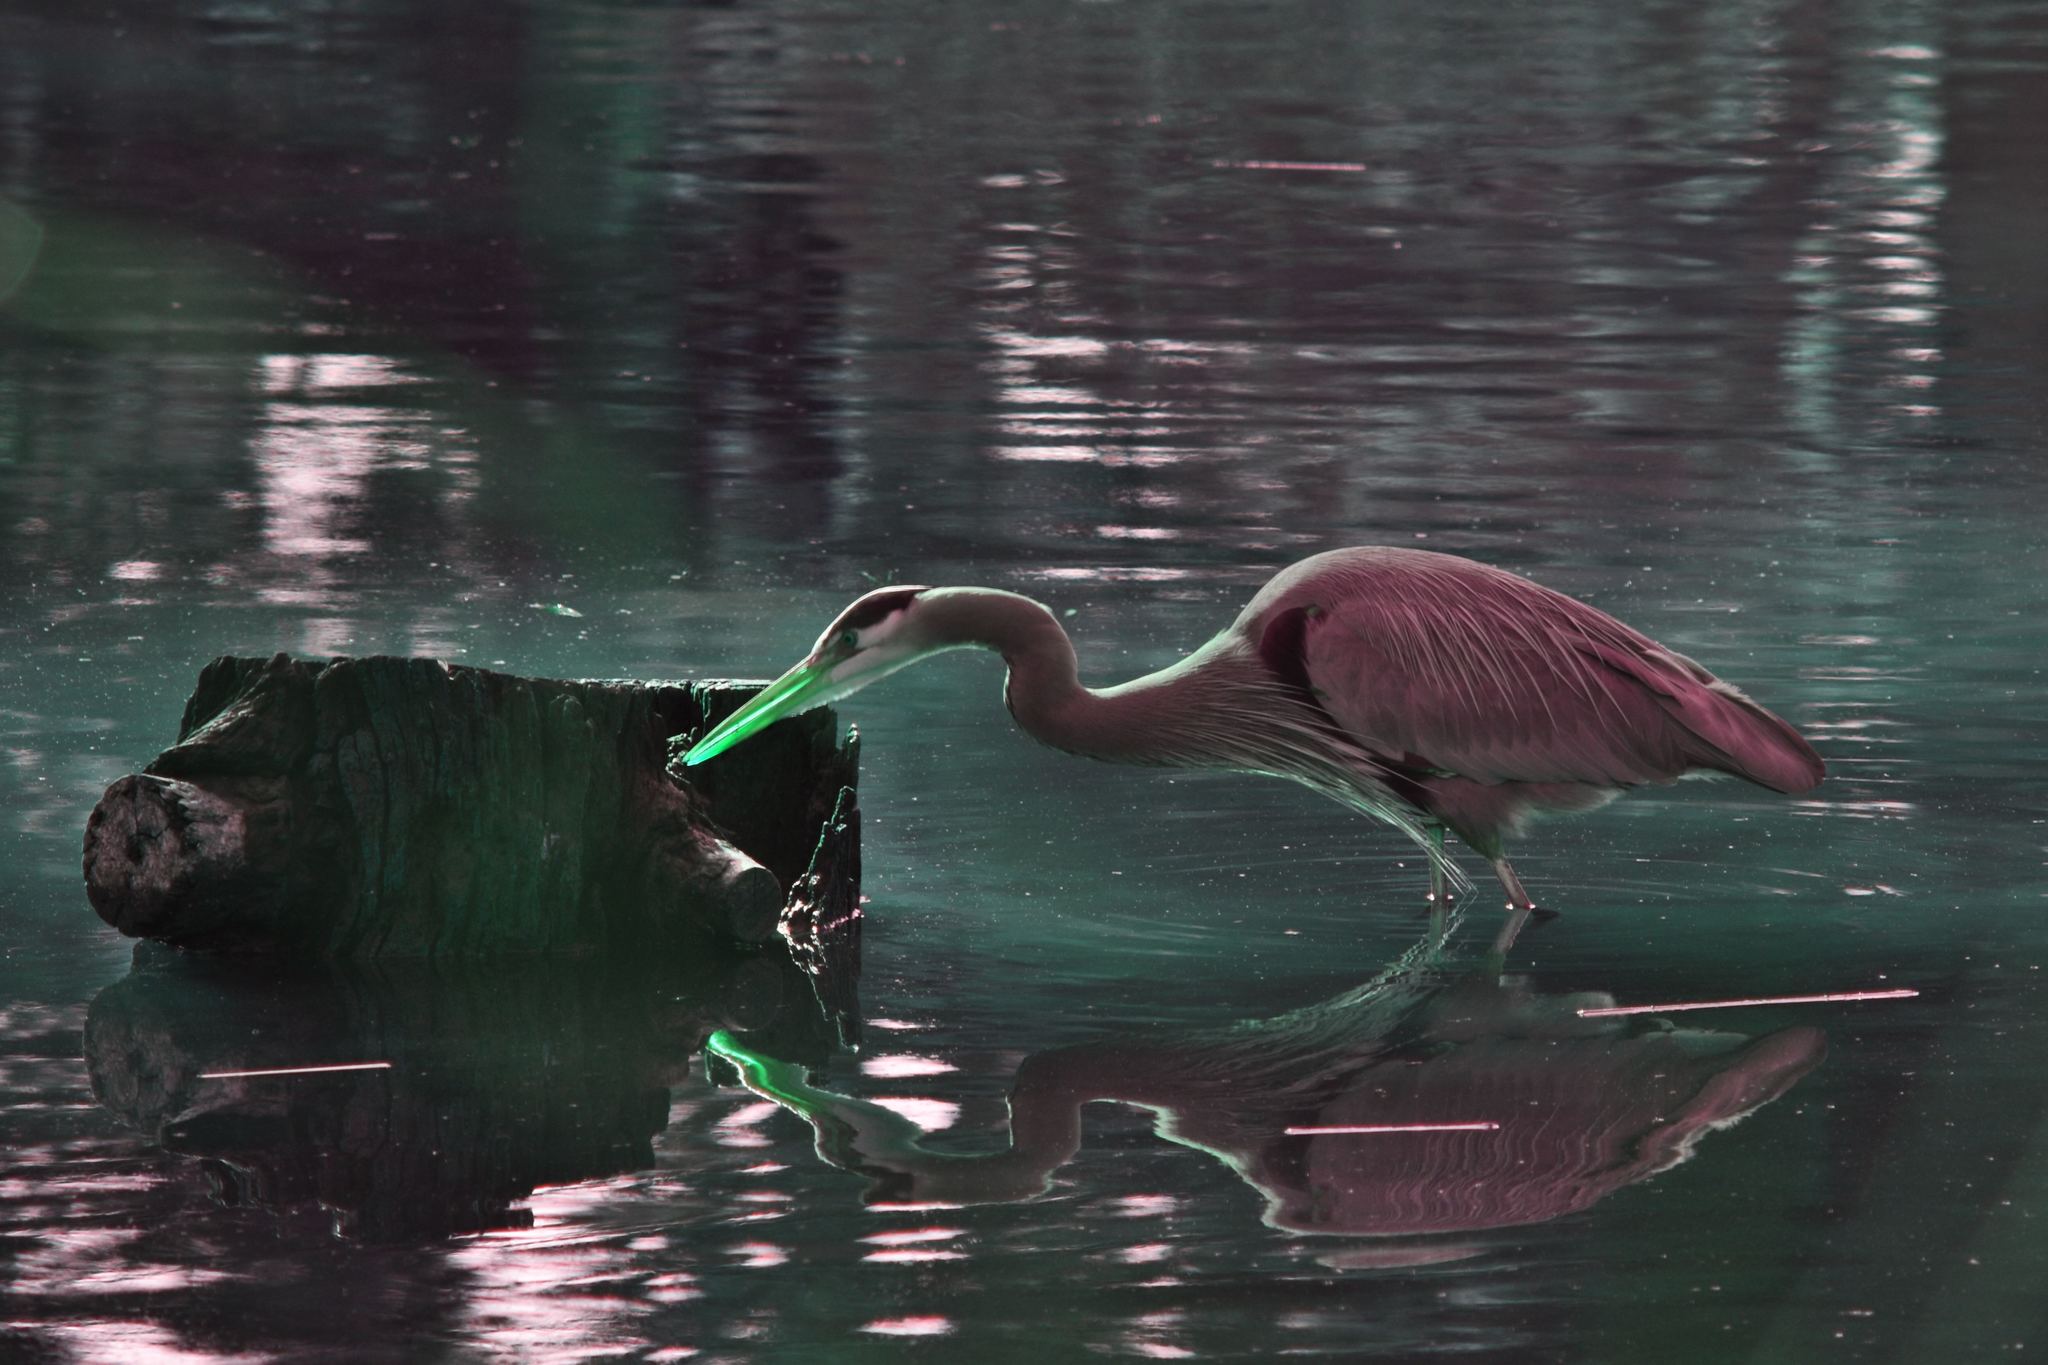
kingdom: Animalia
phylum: Chordata
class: Aves
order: Pelecaniformes
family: Ardeidae
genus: Ardea
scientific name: Ardea herodias
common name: Great blue heron
